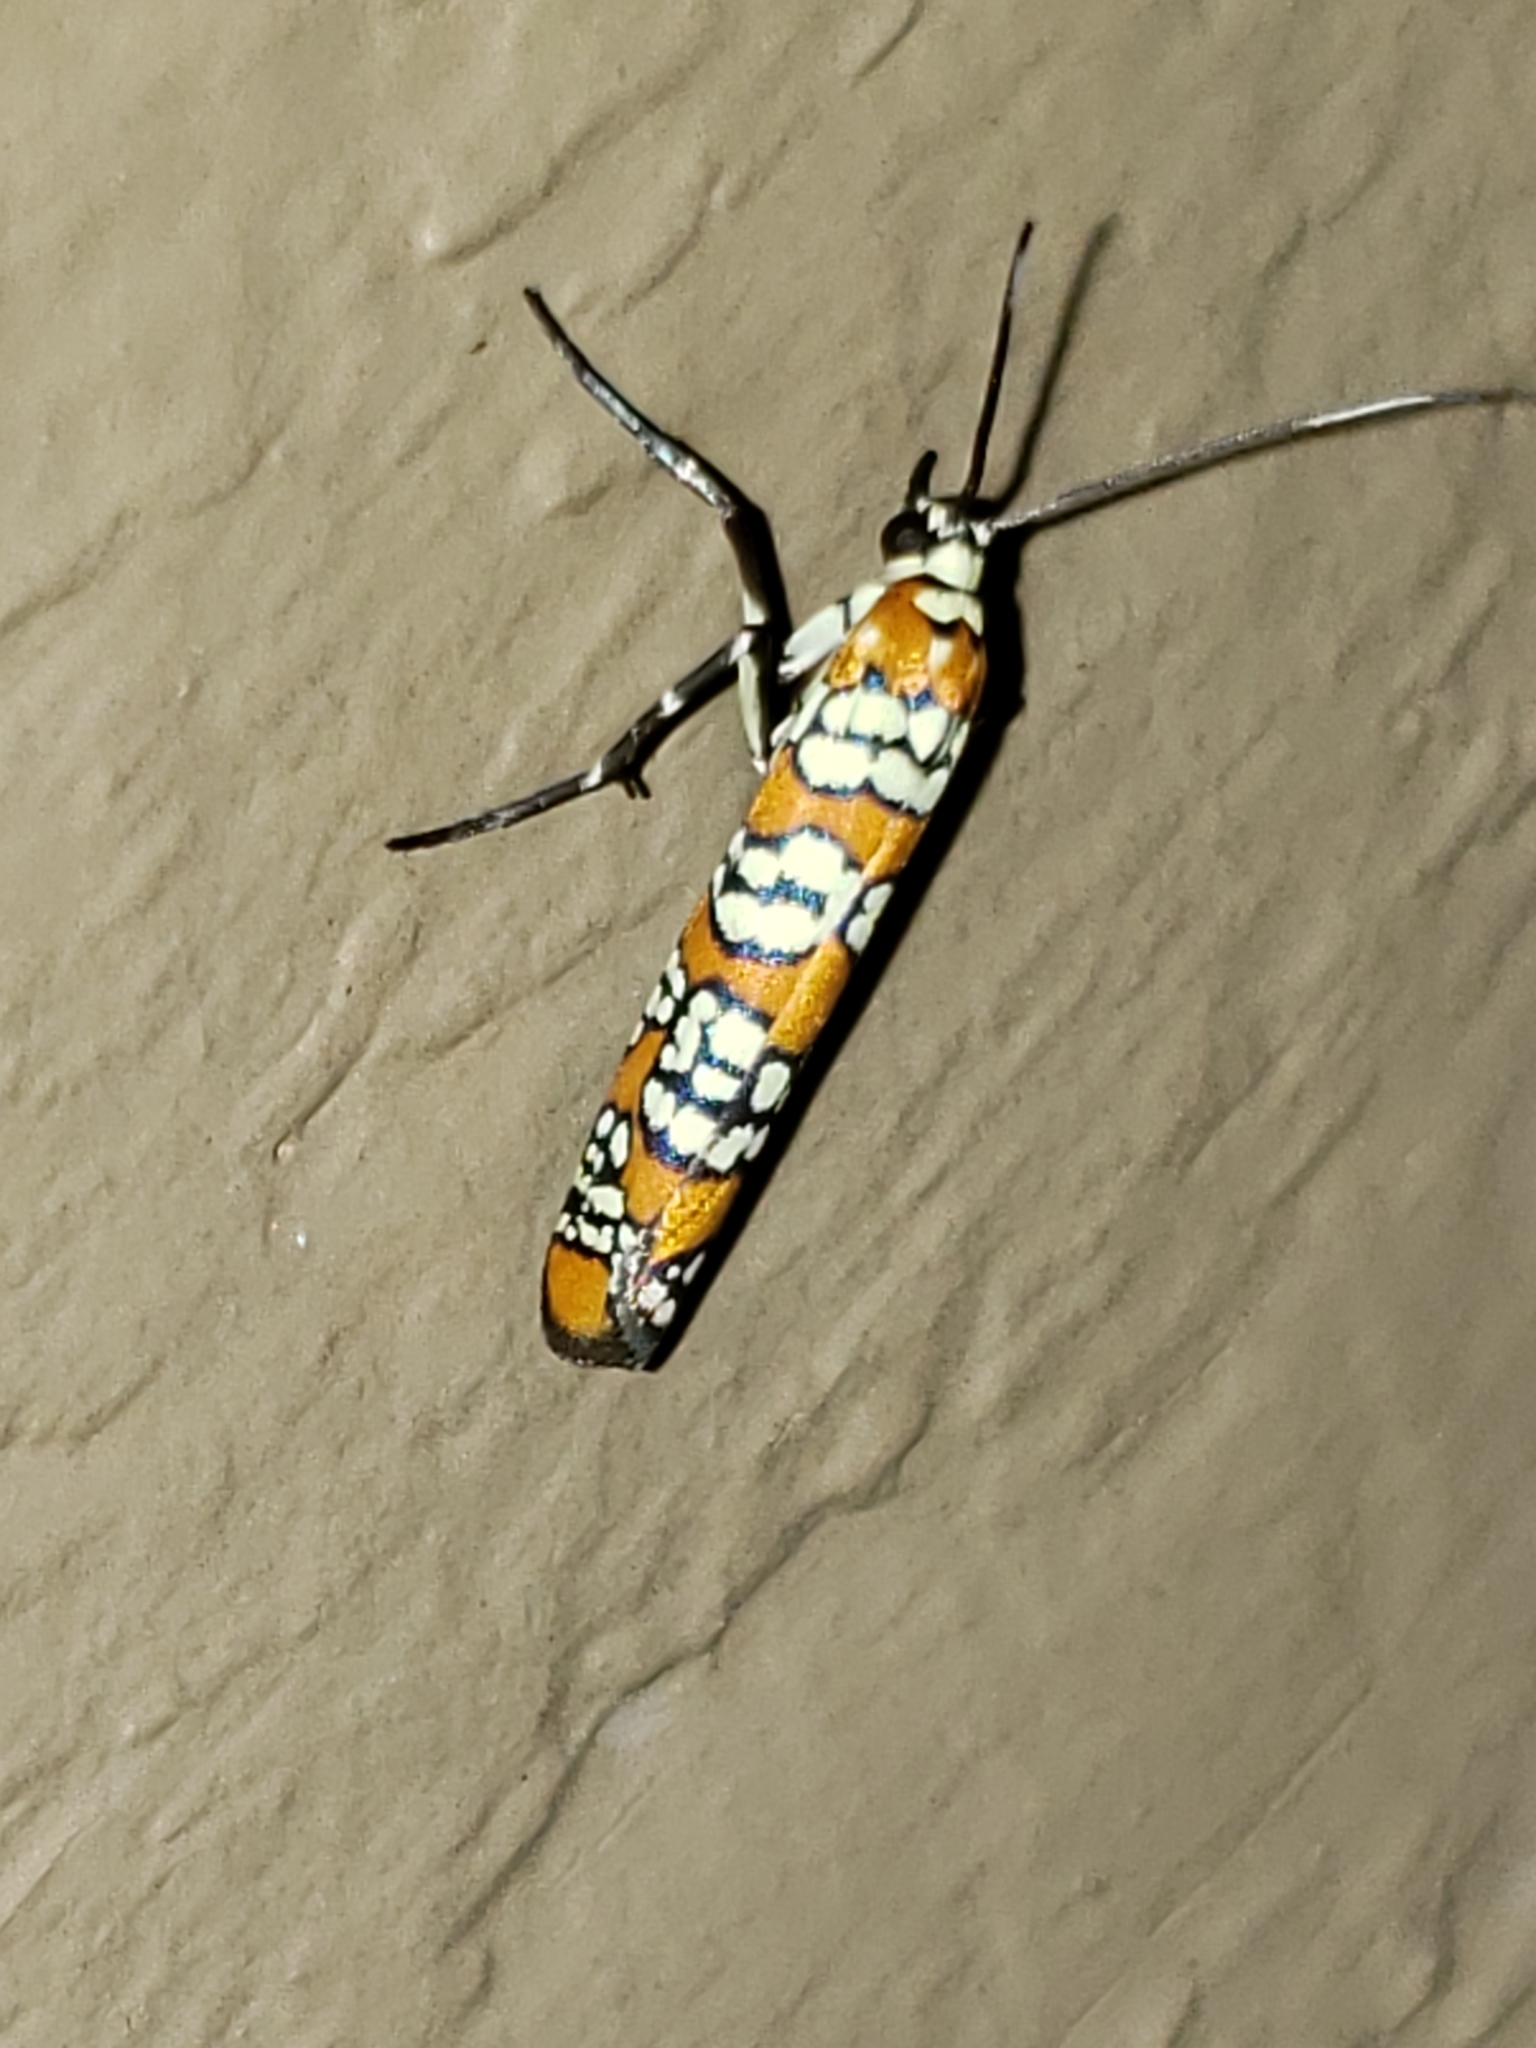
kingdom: Animalia
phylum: Arthropoda
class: Insecta
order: Lepidoptera
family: Attevidae
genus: Atteva
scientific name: Atteva punctella
